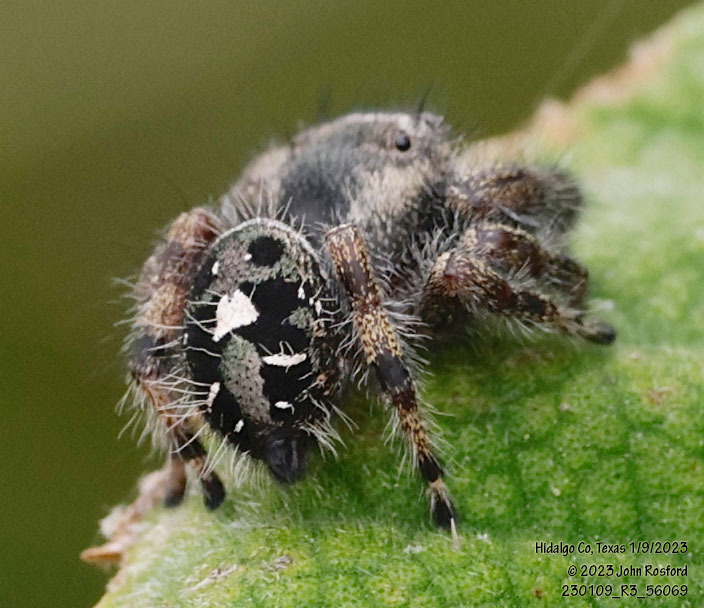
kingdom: Animalia
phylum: Arthropoda
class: Arachnida
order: Araneae
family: Salticidae
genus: Phidippus
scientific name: Phidippus audax
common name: Bold jumper
